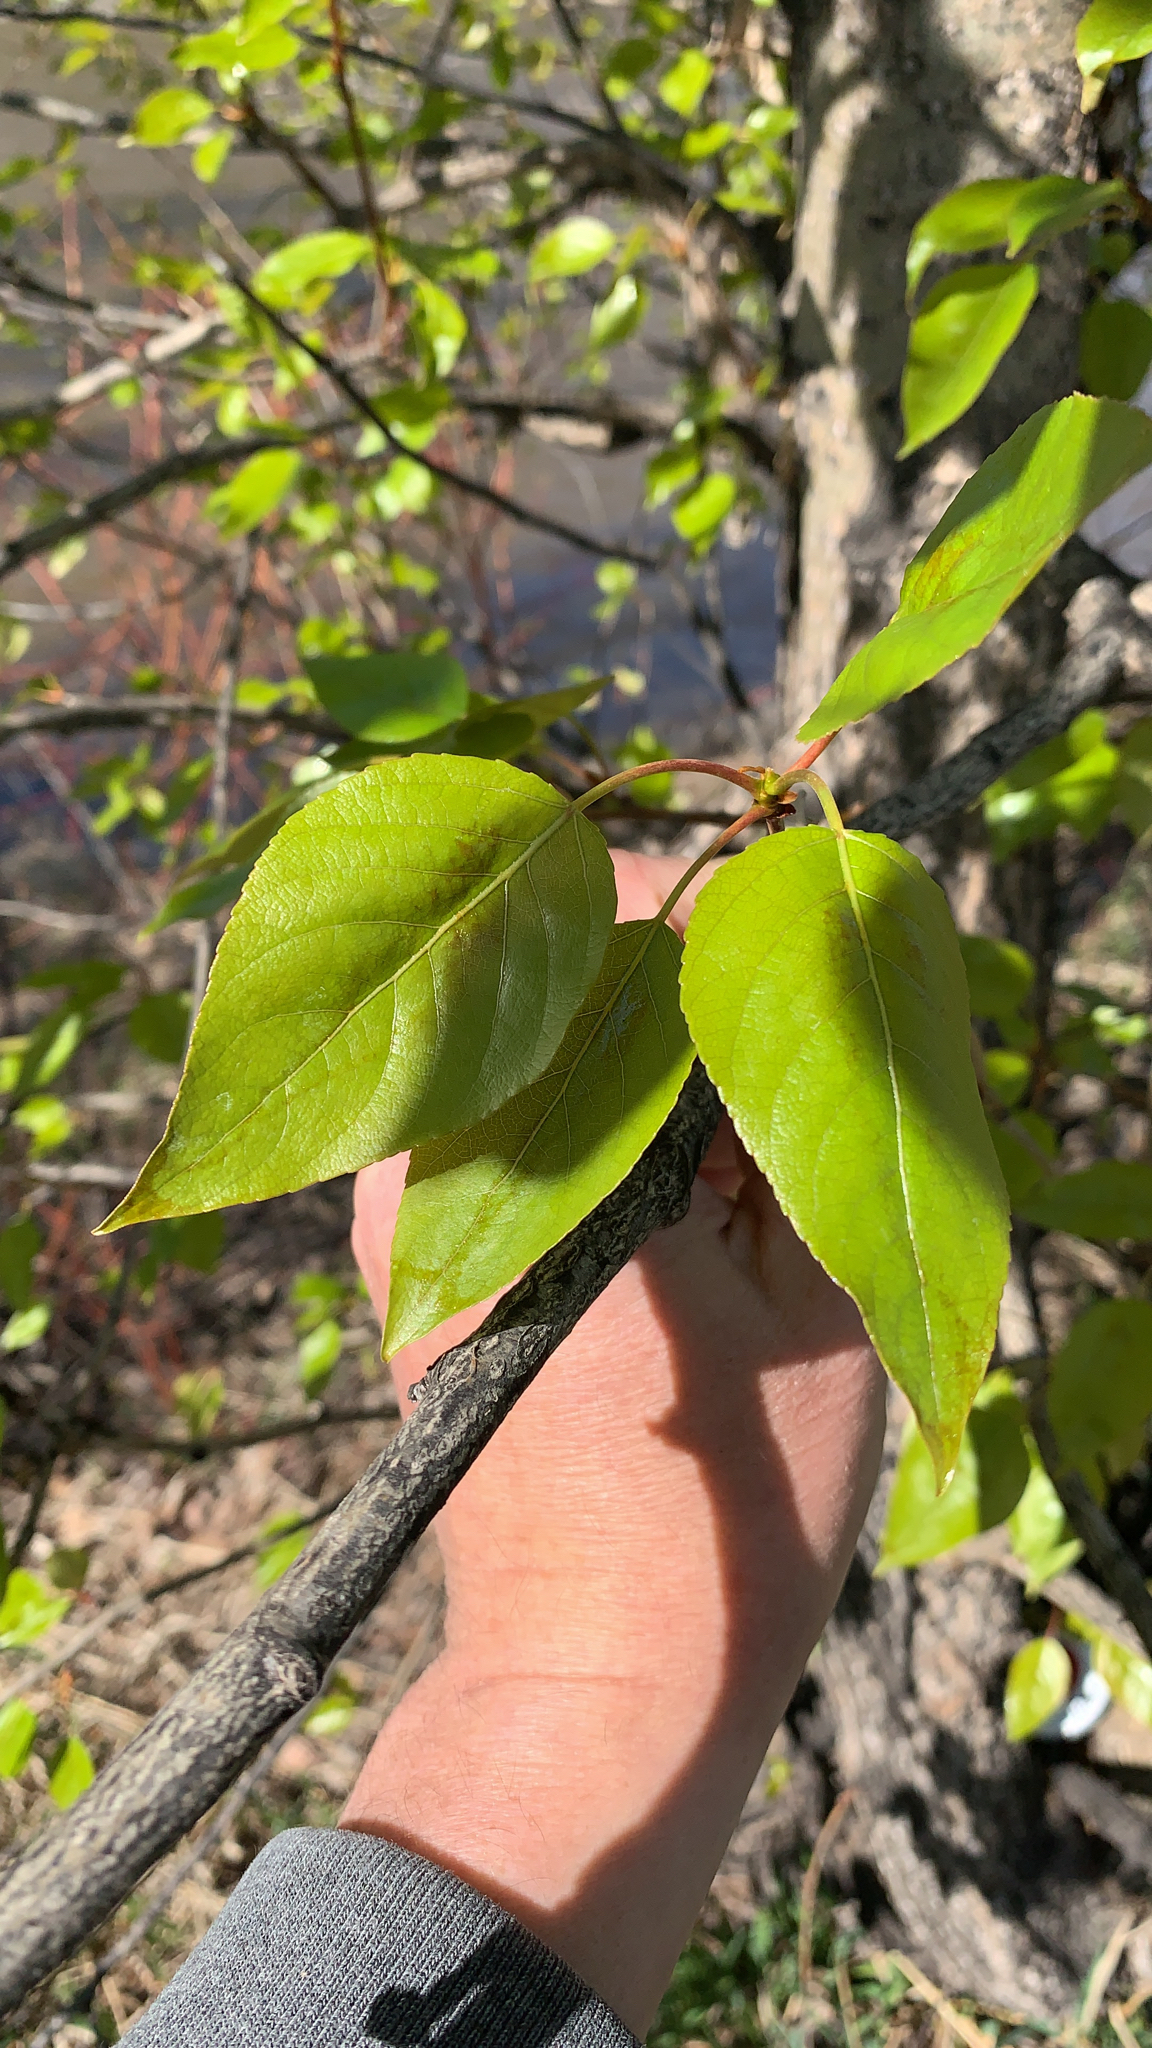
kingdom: Plantae
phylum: Tracheophyta
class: Magnoliopsida
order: Malpighiales
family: Salicaceae
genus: Populus
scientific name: Populus trichocarpa
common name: Black cottonwood
